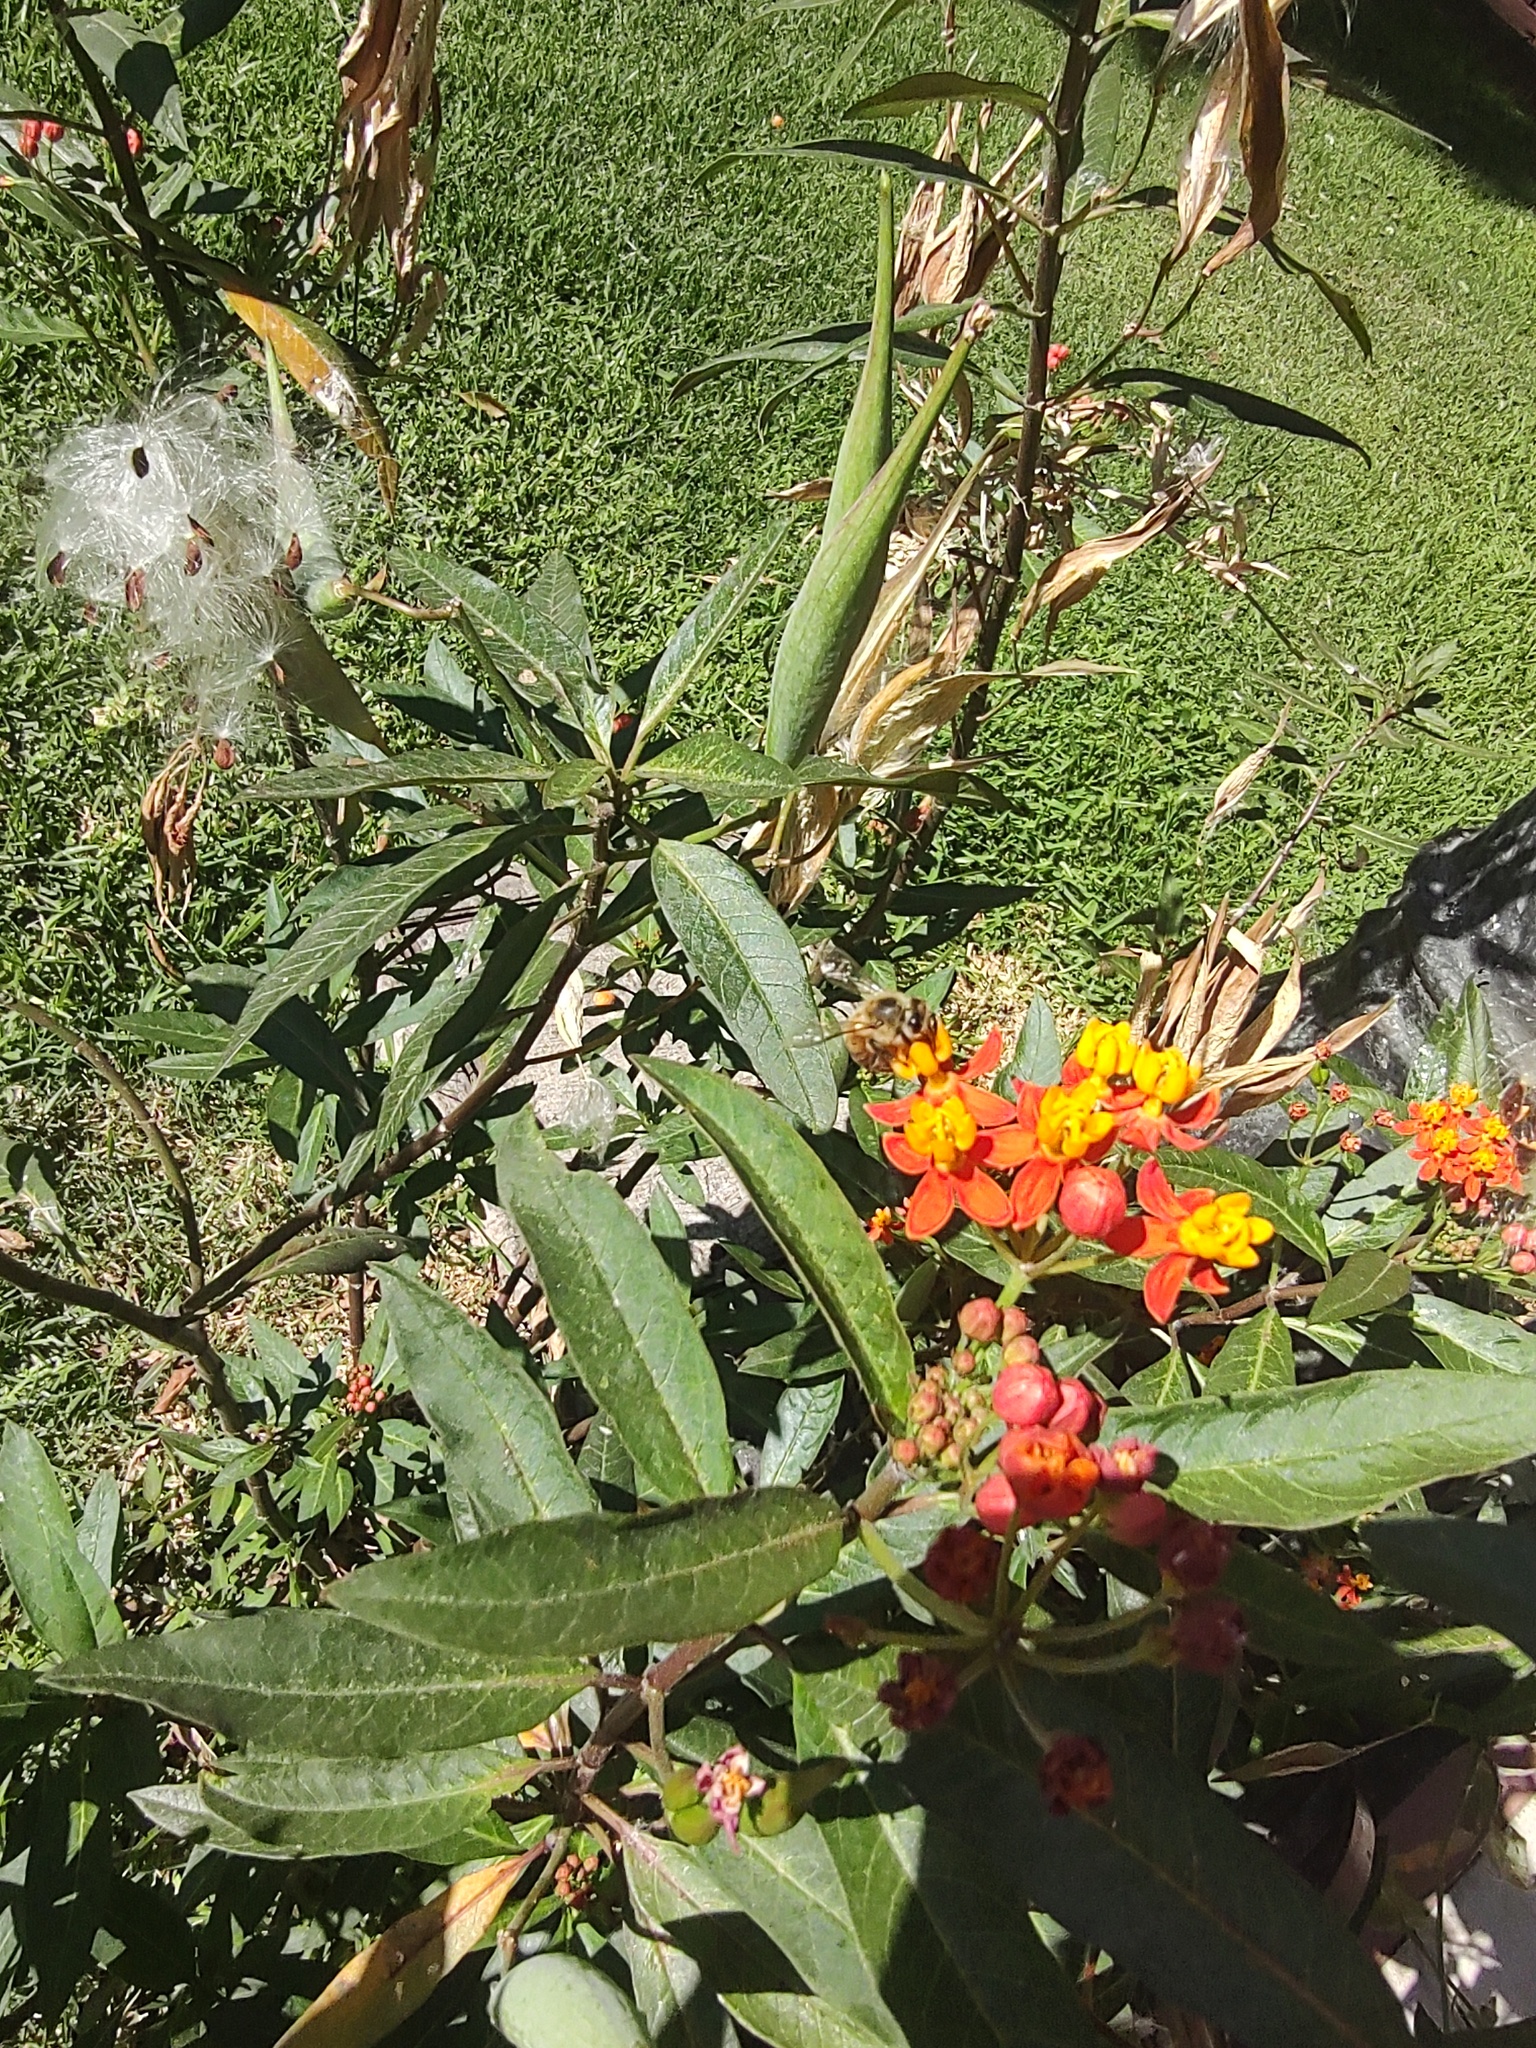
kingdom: Animalia
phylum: Arthropoda
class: Insecta
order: Hymenoptera
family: Apidae
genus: Apis
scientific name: Apis mellifera
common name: Honey bee
